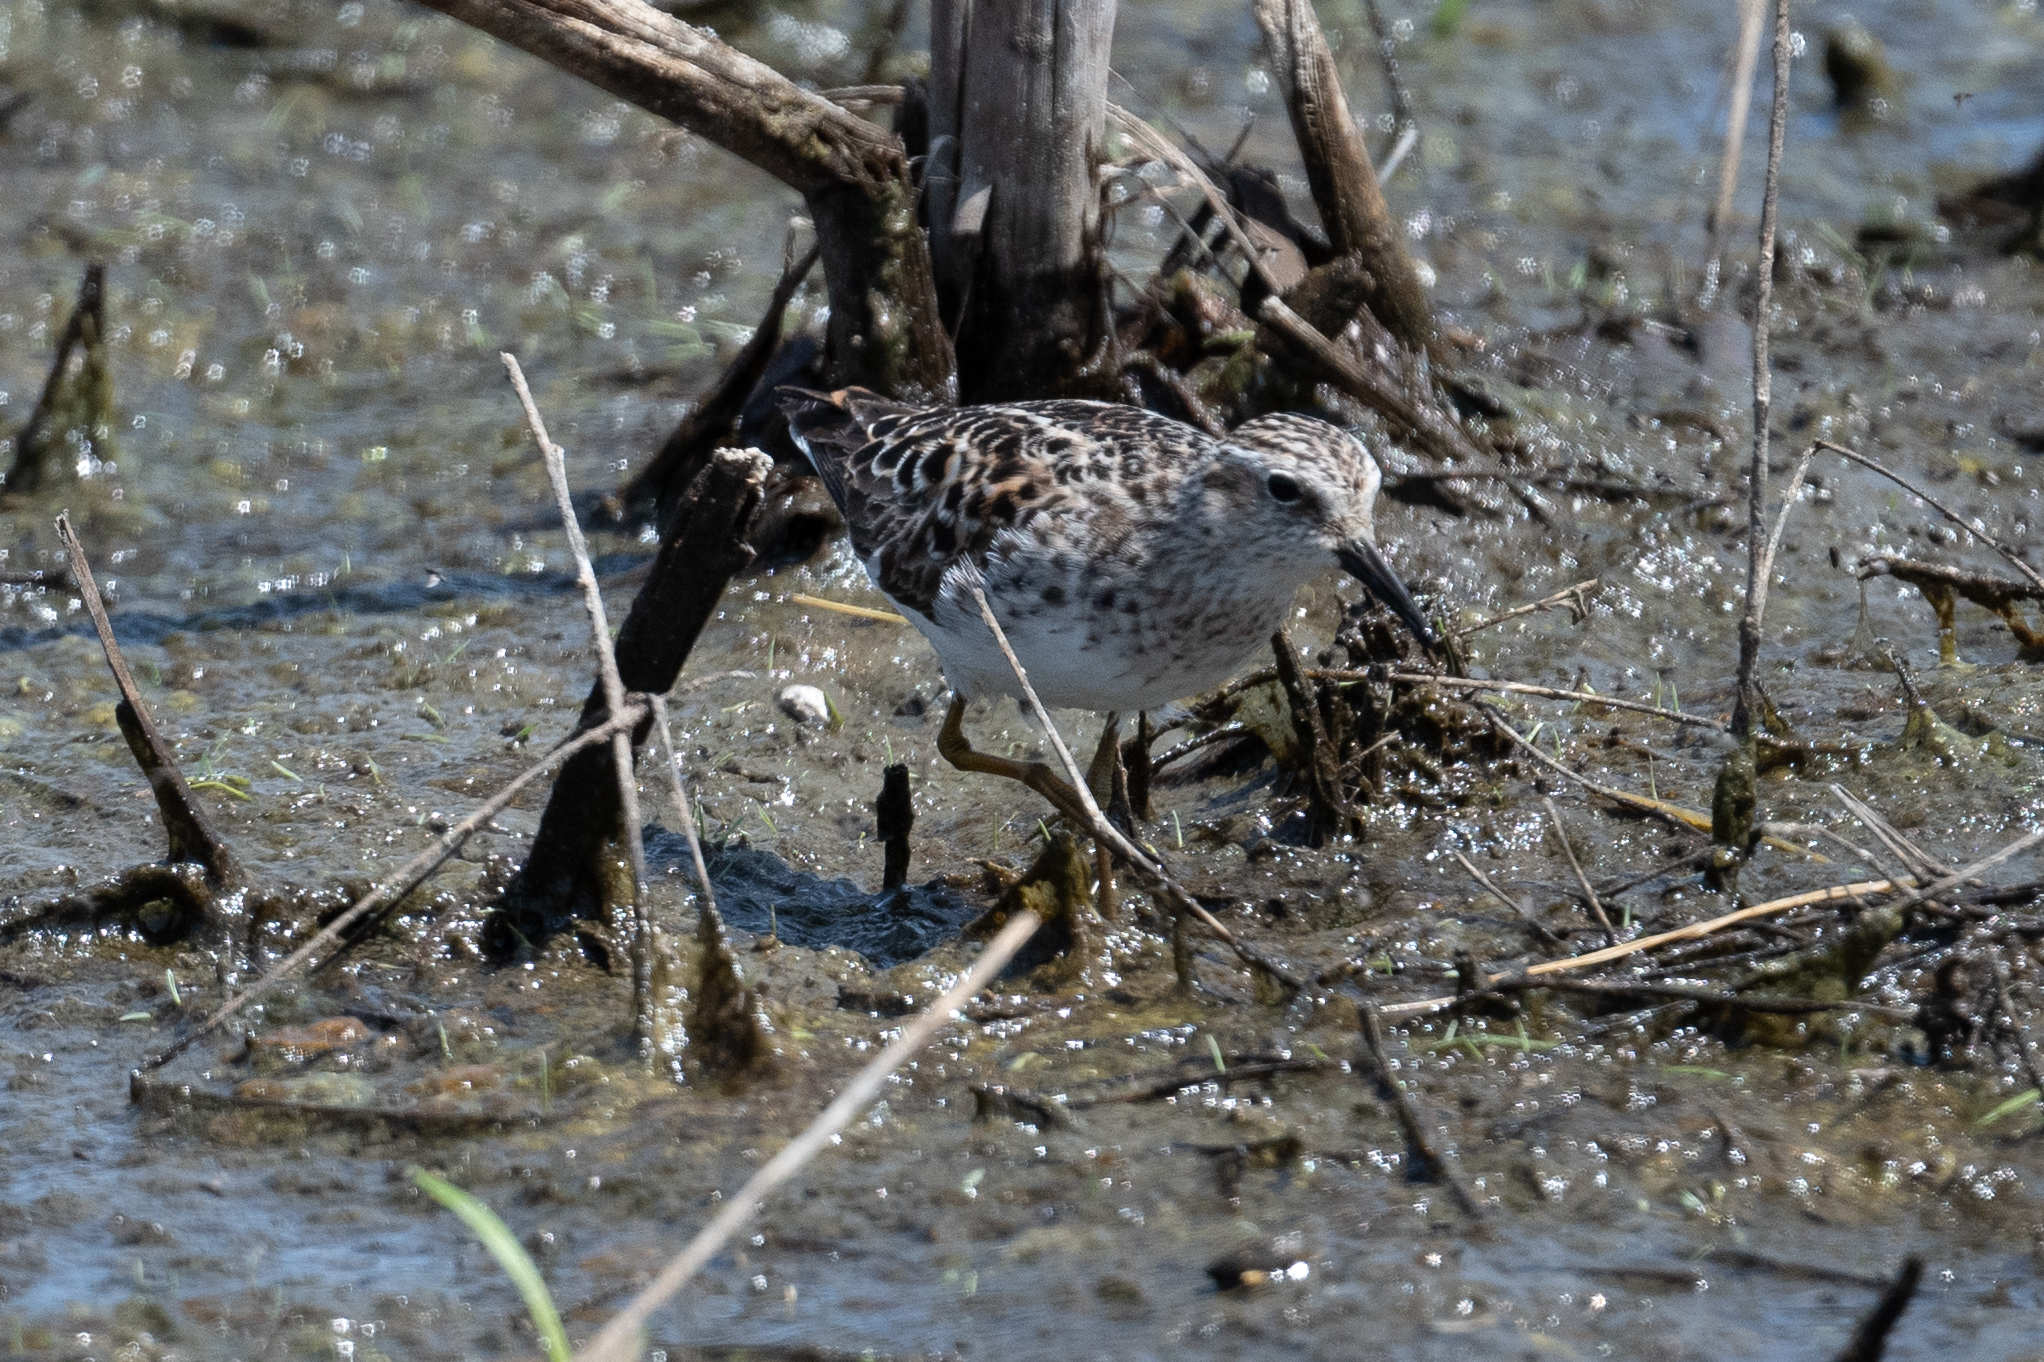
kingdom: Animalia
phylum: Chordata
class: Aves
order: Charadriiformes
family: Scolopacidae
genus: Calidris
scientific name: Calidris minutilla
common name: Least sandpiper
